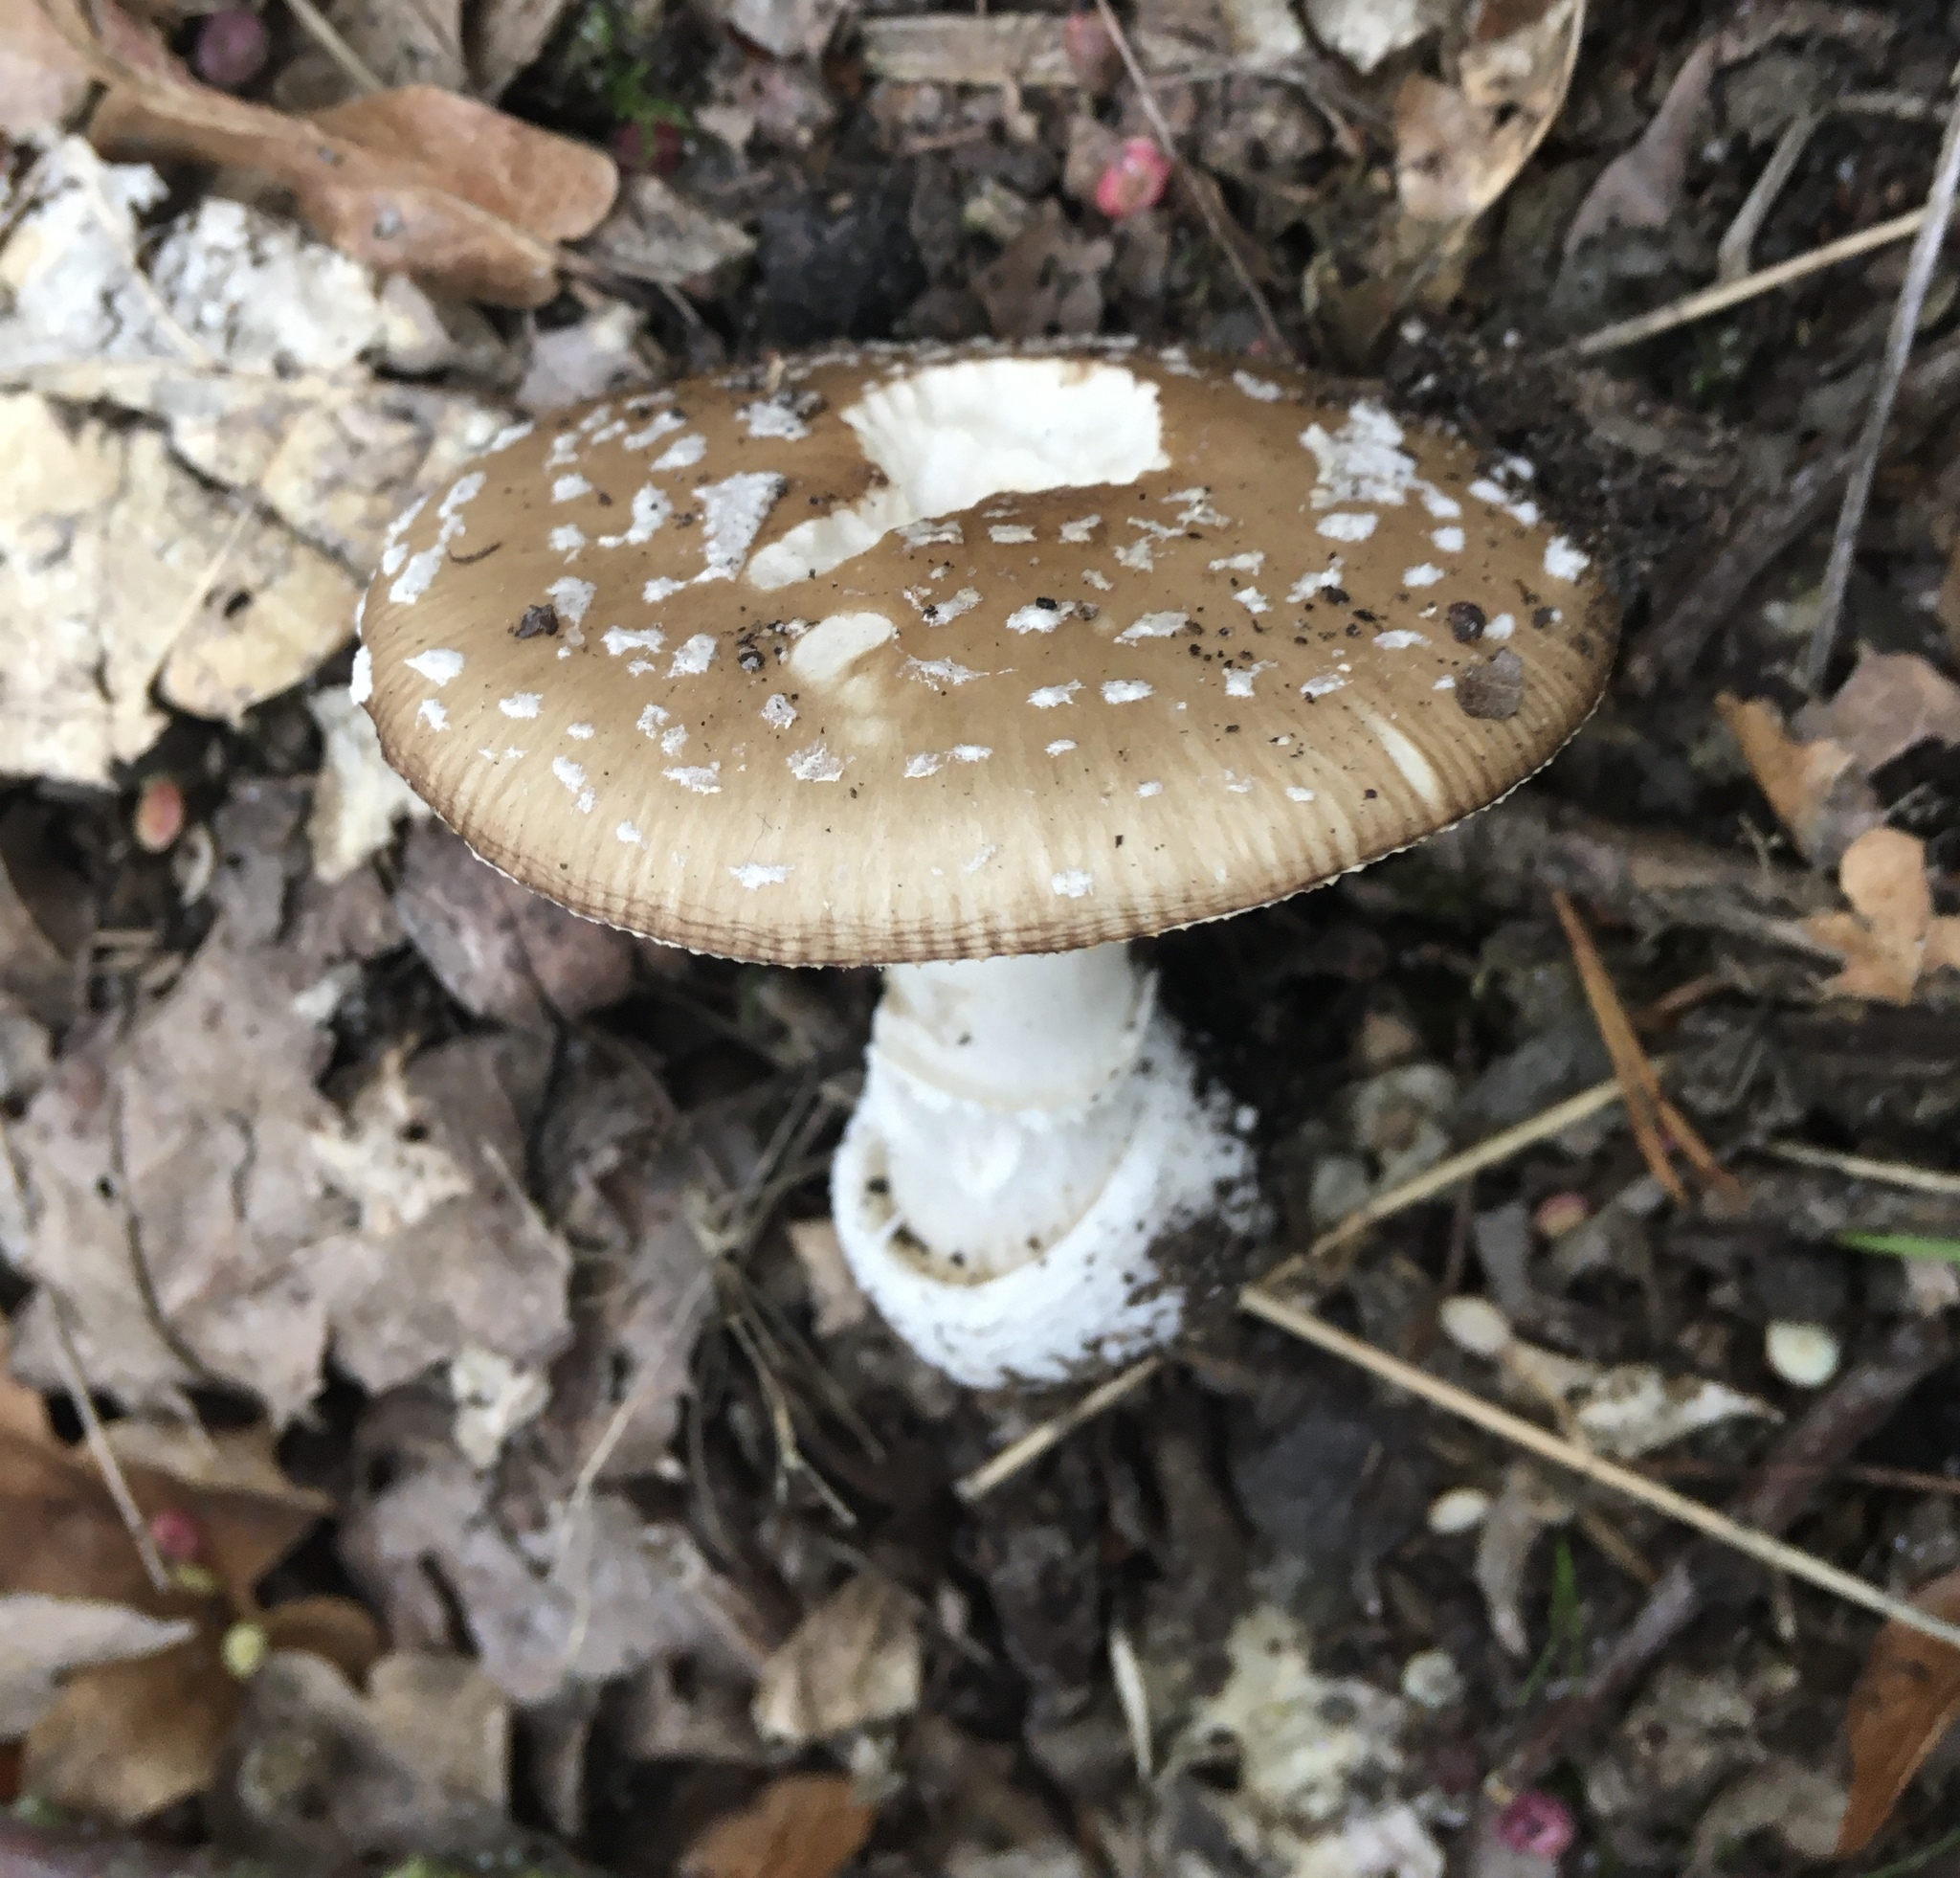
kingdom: Fungi
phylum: Basidiomycota
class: Agaricomycetes
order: Agaricales
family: Amanitaceae
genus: Amanita
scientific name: Amanita pantherina
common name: Panthercap
